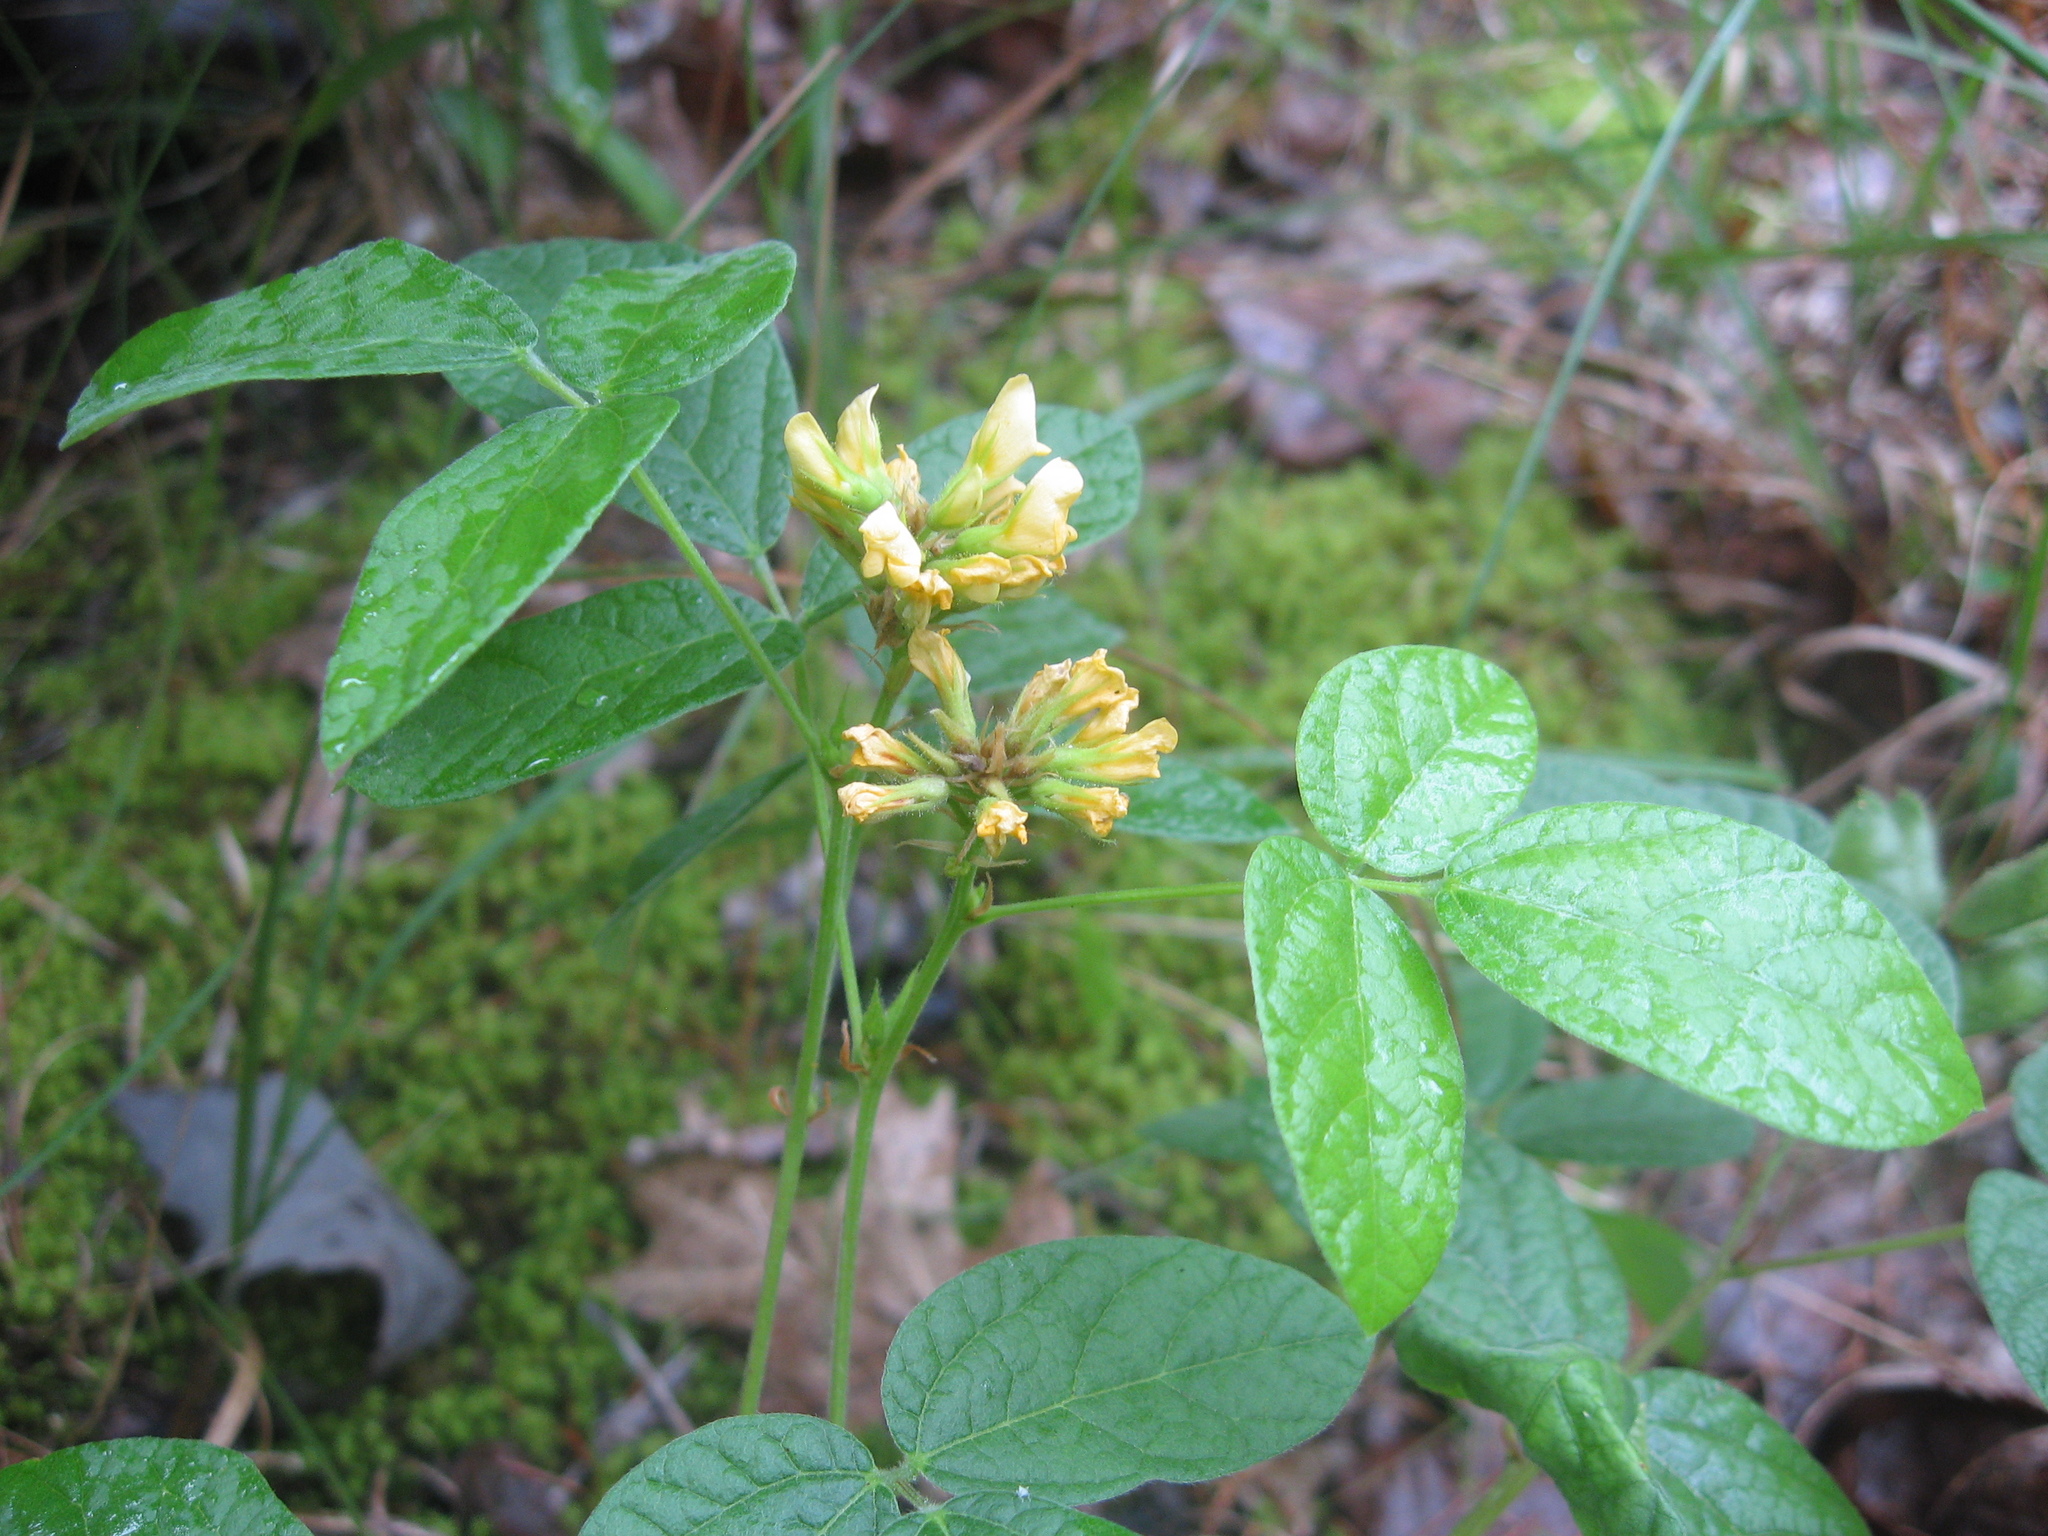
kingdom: Plantae
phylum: Tracheophyta
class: Magnoliopsida
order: Fabales
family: Fabaceae
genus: Rhynchosia
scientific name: Rhynchosia tomentosa
